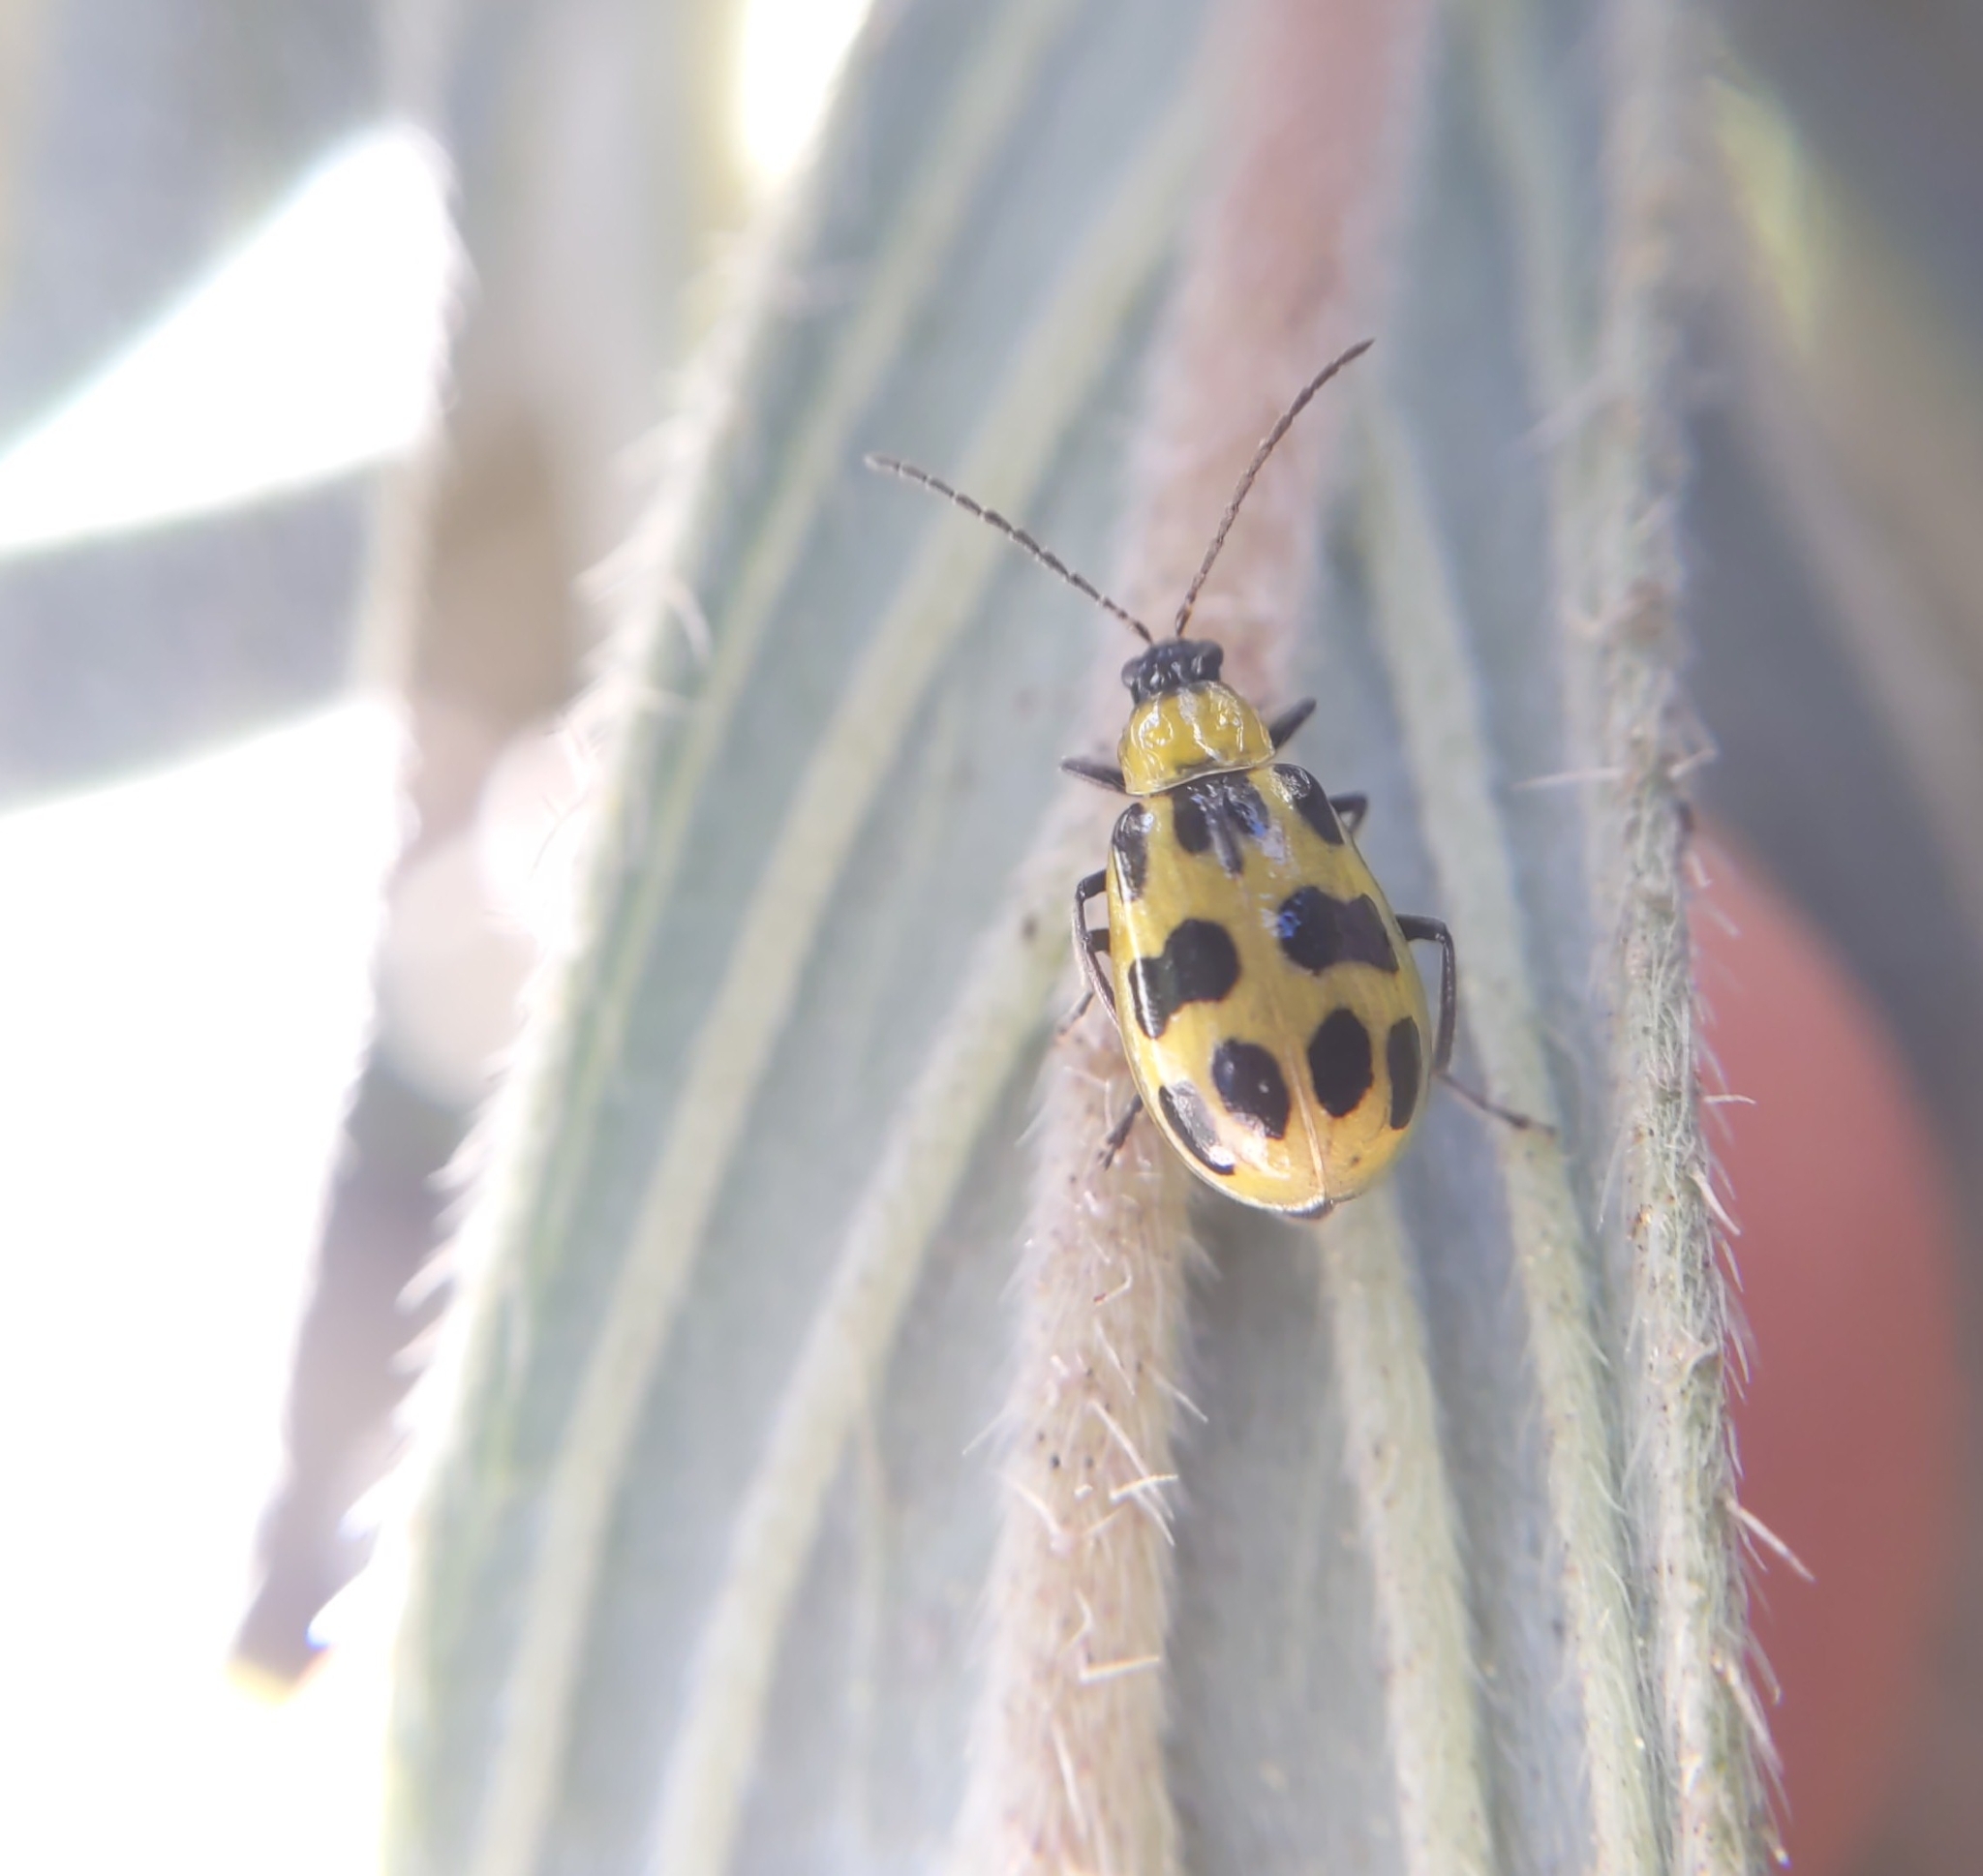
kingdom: Animalia
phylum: Arthropoda
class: Insecta
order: Coleoptera
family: Chrysomelidae
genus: Diabrotica
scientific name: Diabrotica undecimpunctata
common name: Spotted cucumber beetle
